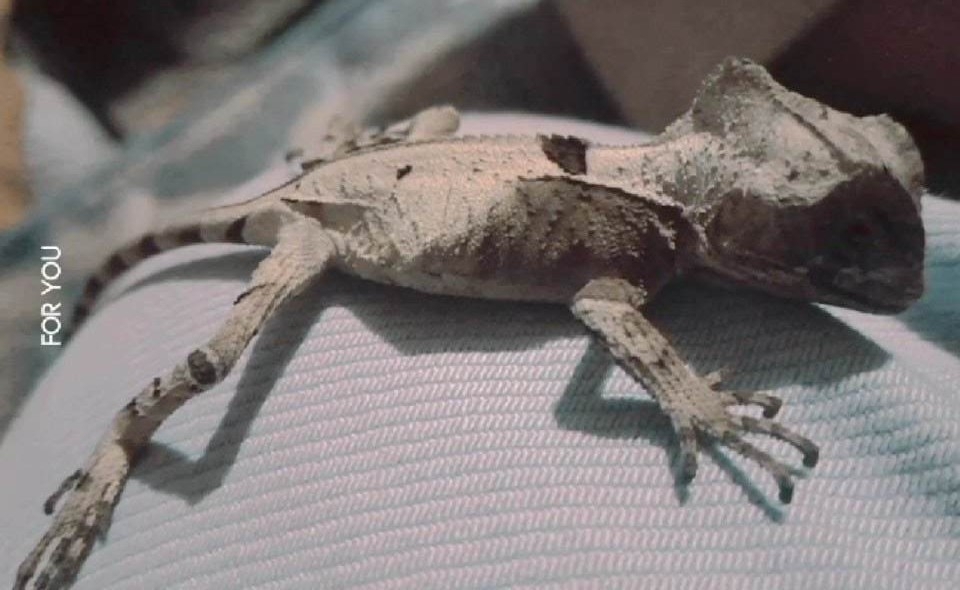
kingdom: Animalia
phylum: Chordata
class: Squamata
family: Corytophanidae
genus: Corytophanes
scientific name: Corytophanes hernandesii
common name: Hernandez’s helmeted basilisk
